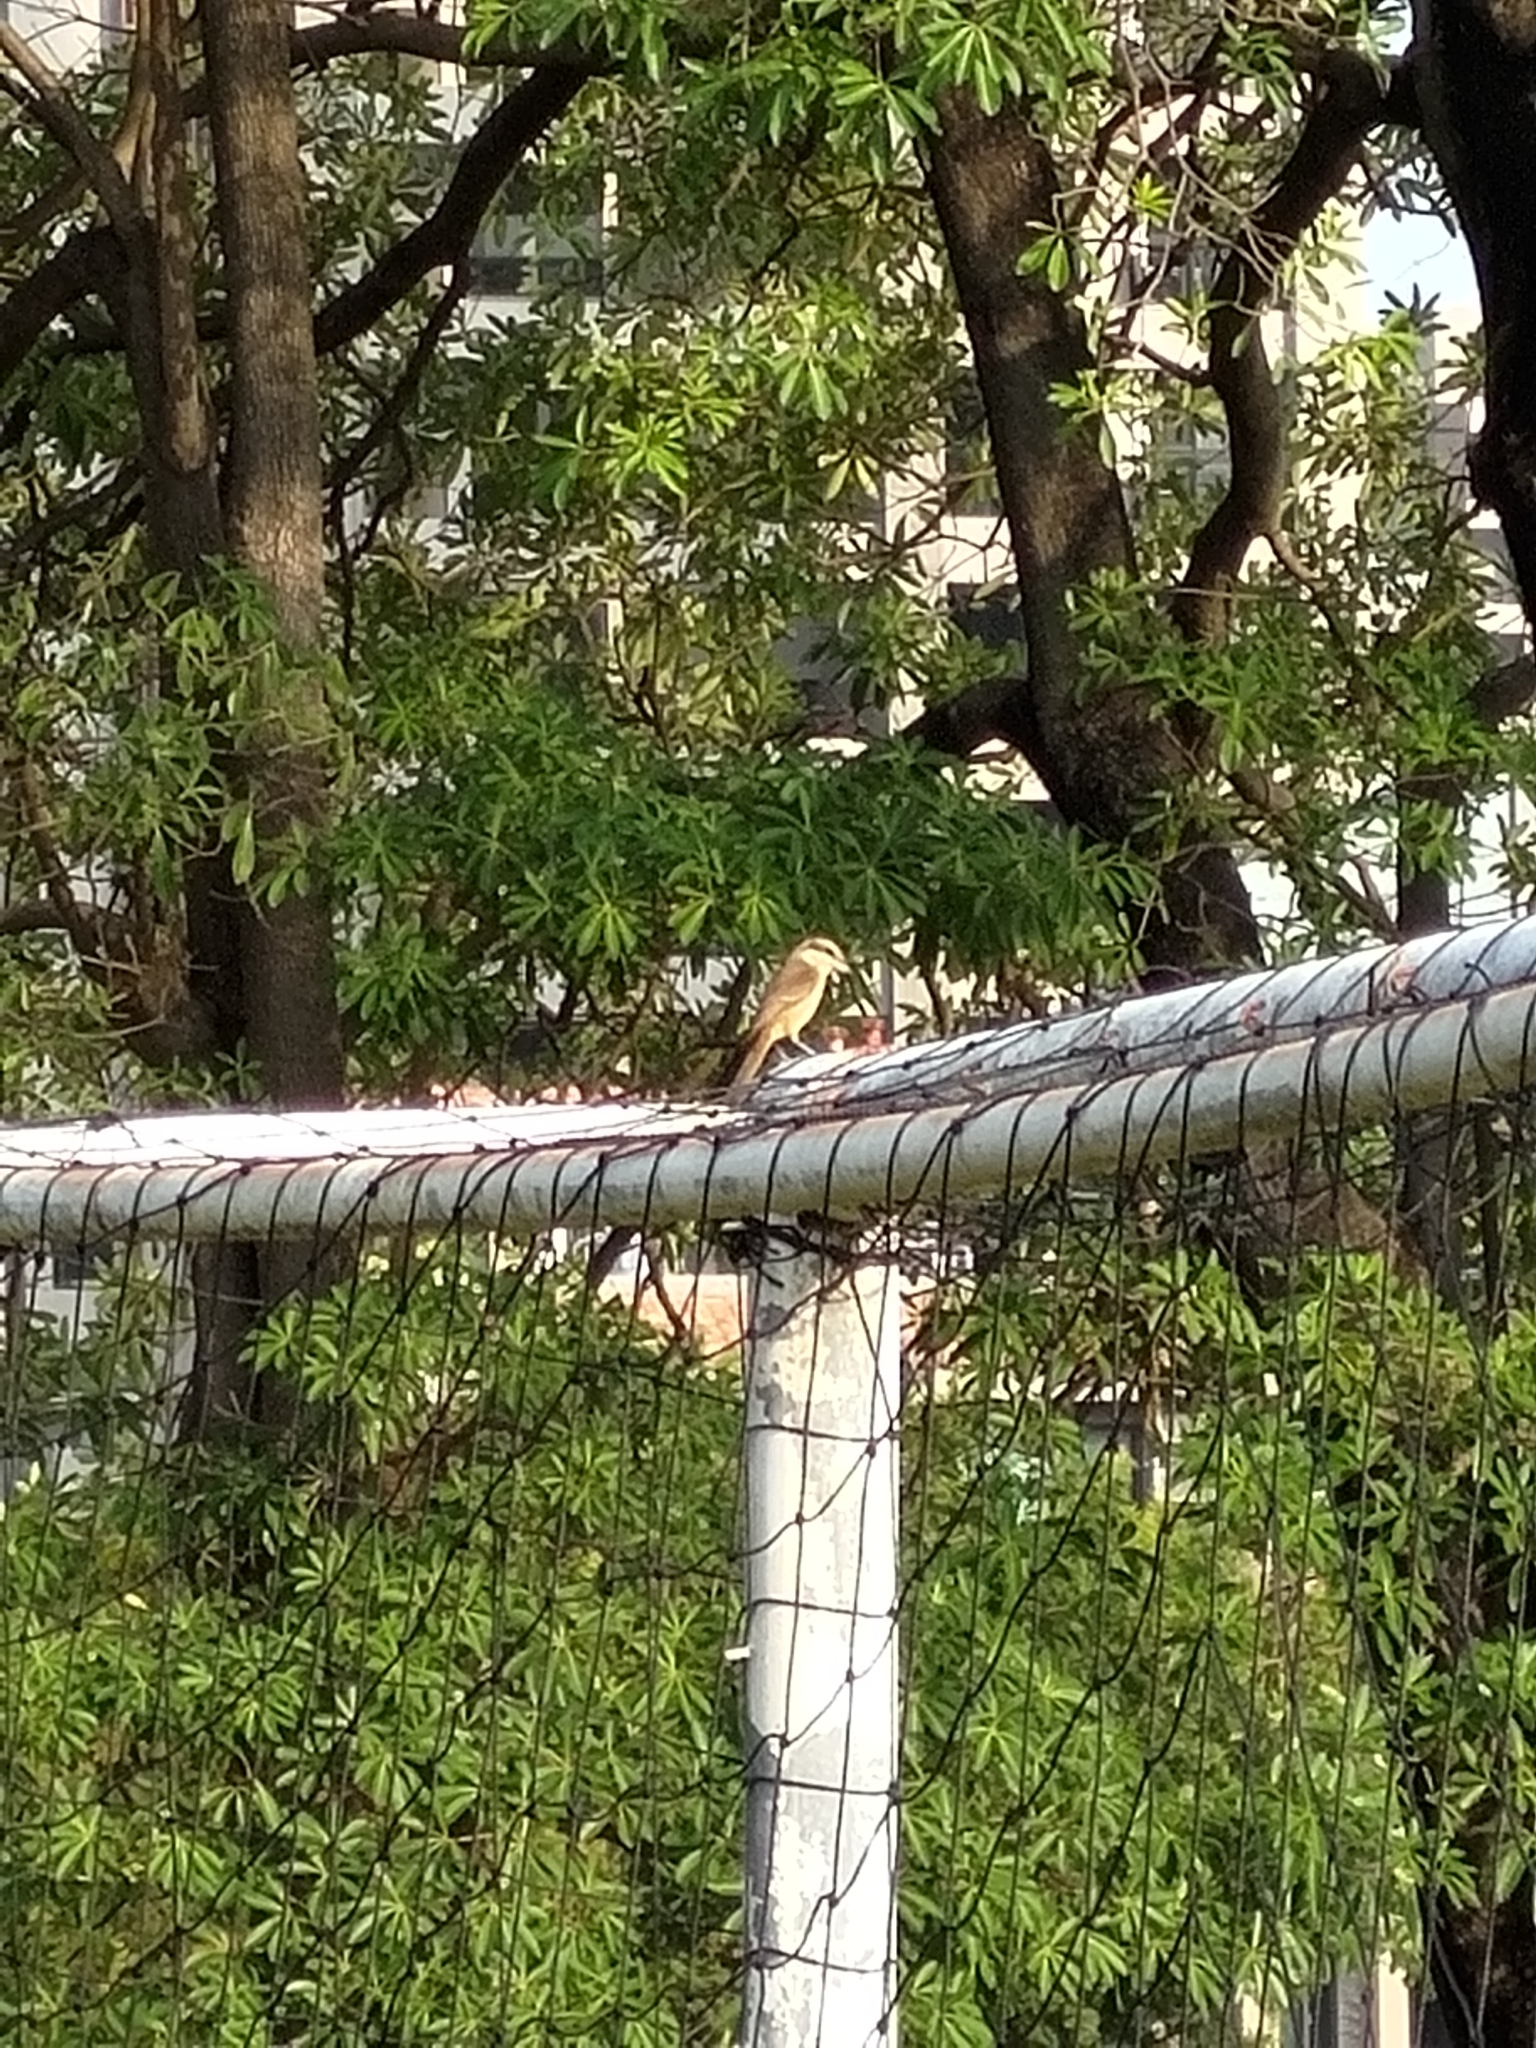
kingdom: Animalia
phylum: Chordata
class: Aves
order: Passeriformes
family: Laniidae
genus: Lanius
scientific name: Lanius cristatus
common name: Brown shrike
